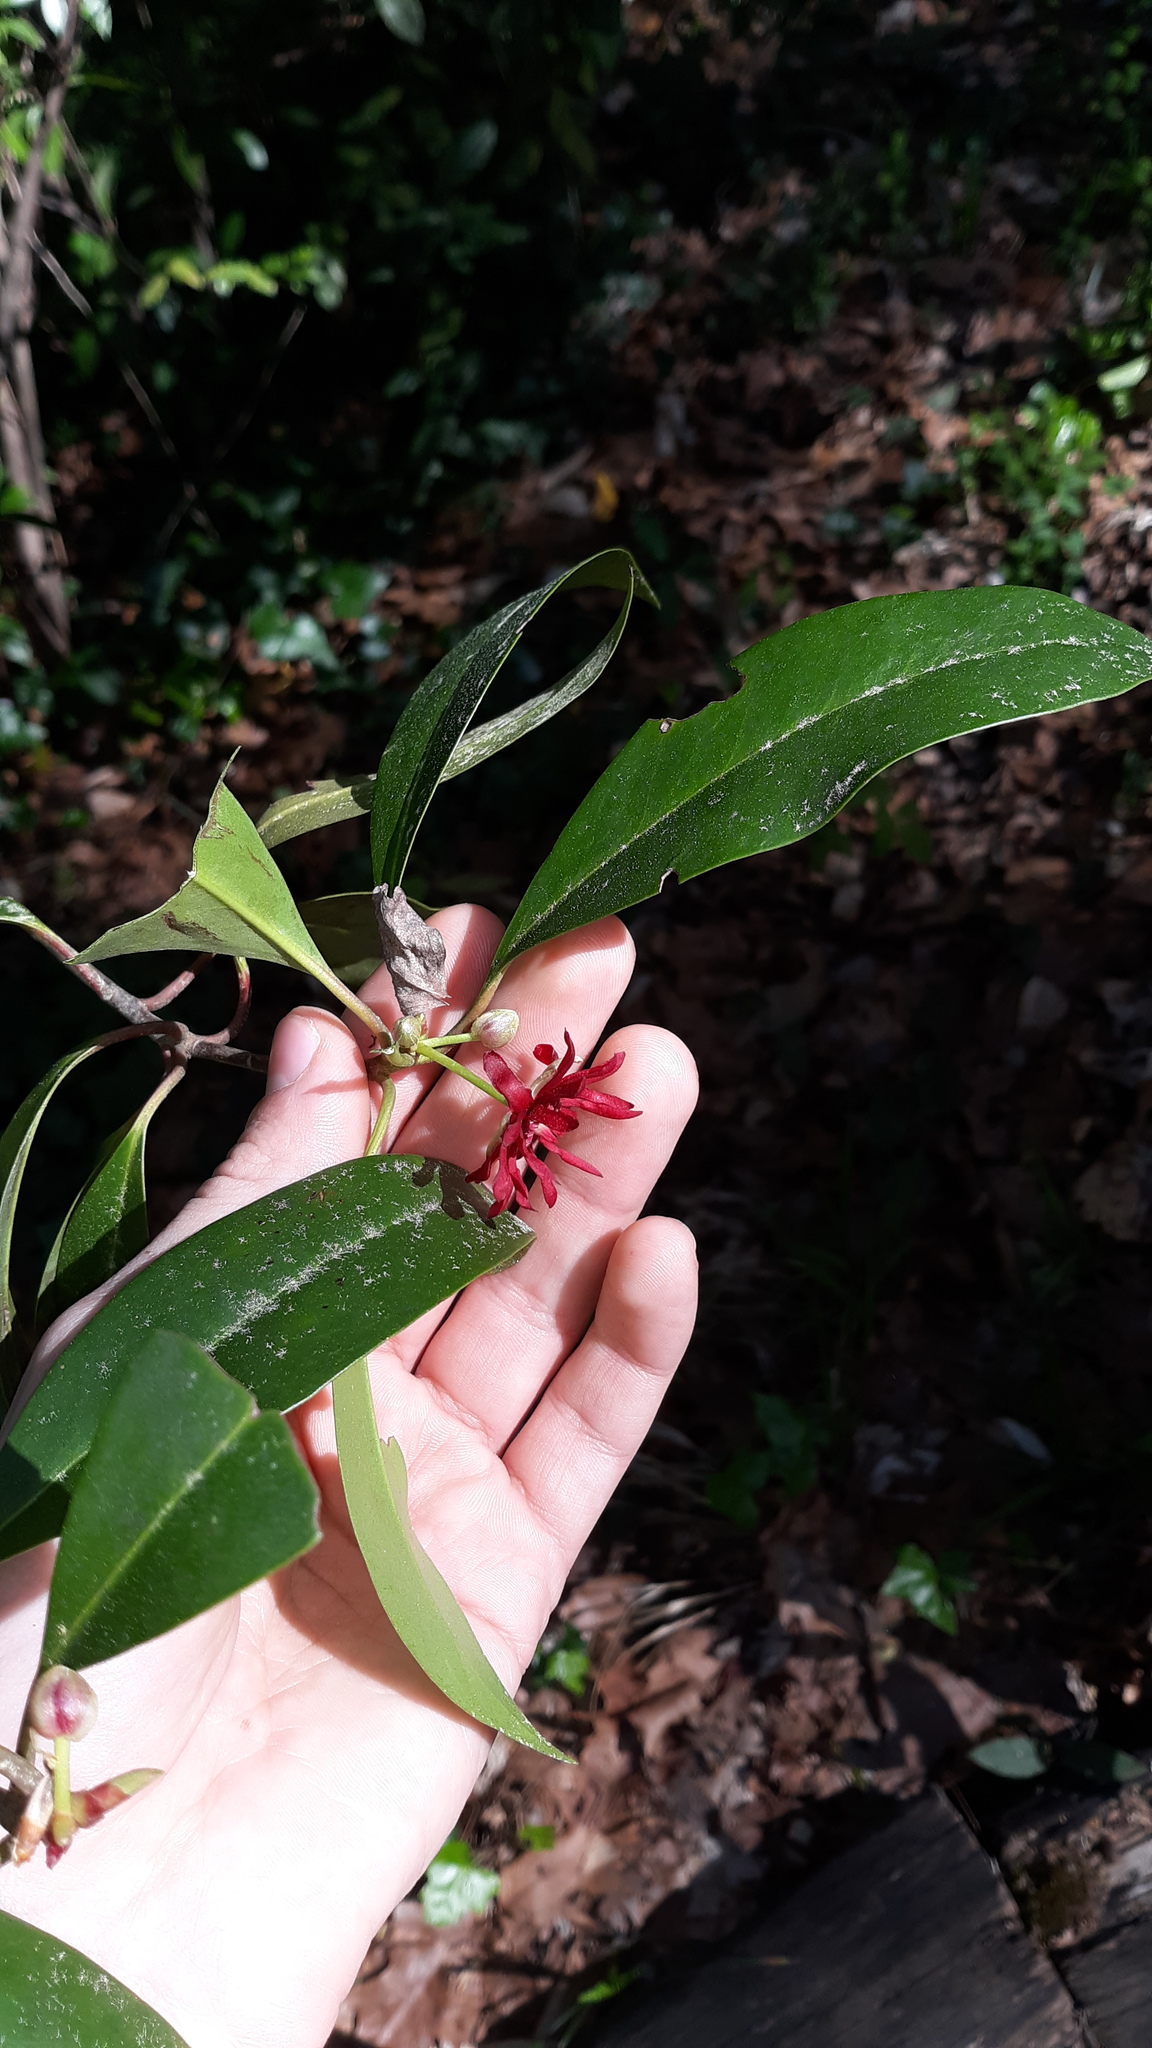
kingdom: Plantae
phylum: Tracheophyta
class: Magnoliopsida
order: Austrobaileyales
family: Schisandraceae
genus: Illicium
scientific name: Illicium floridanum
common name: Florida anisetree
